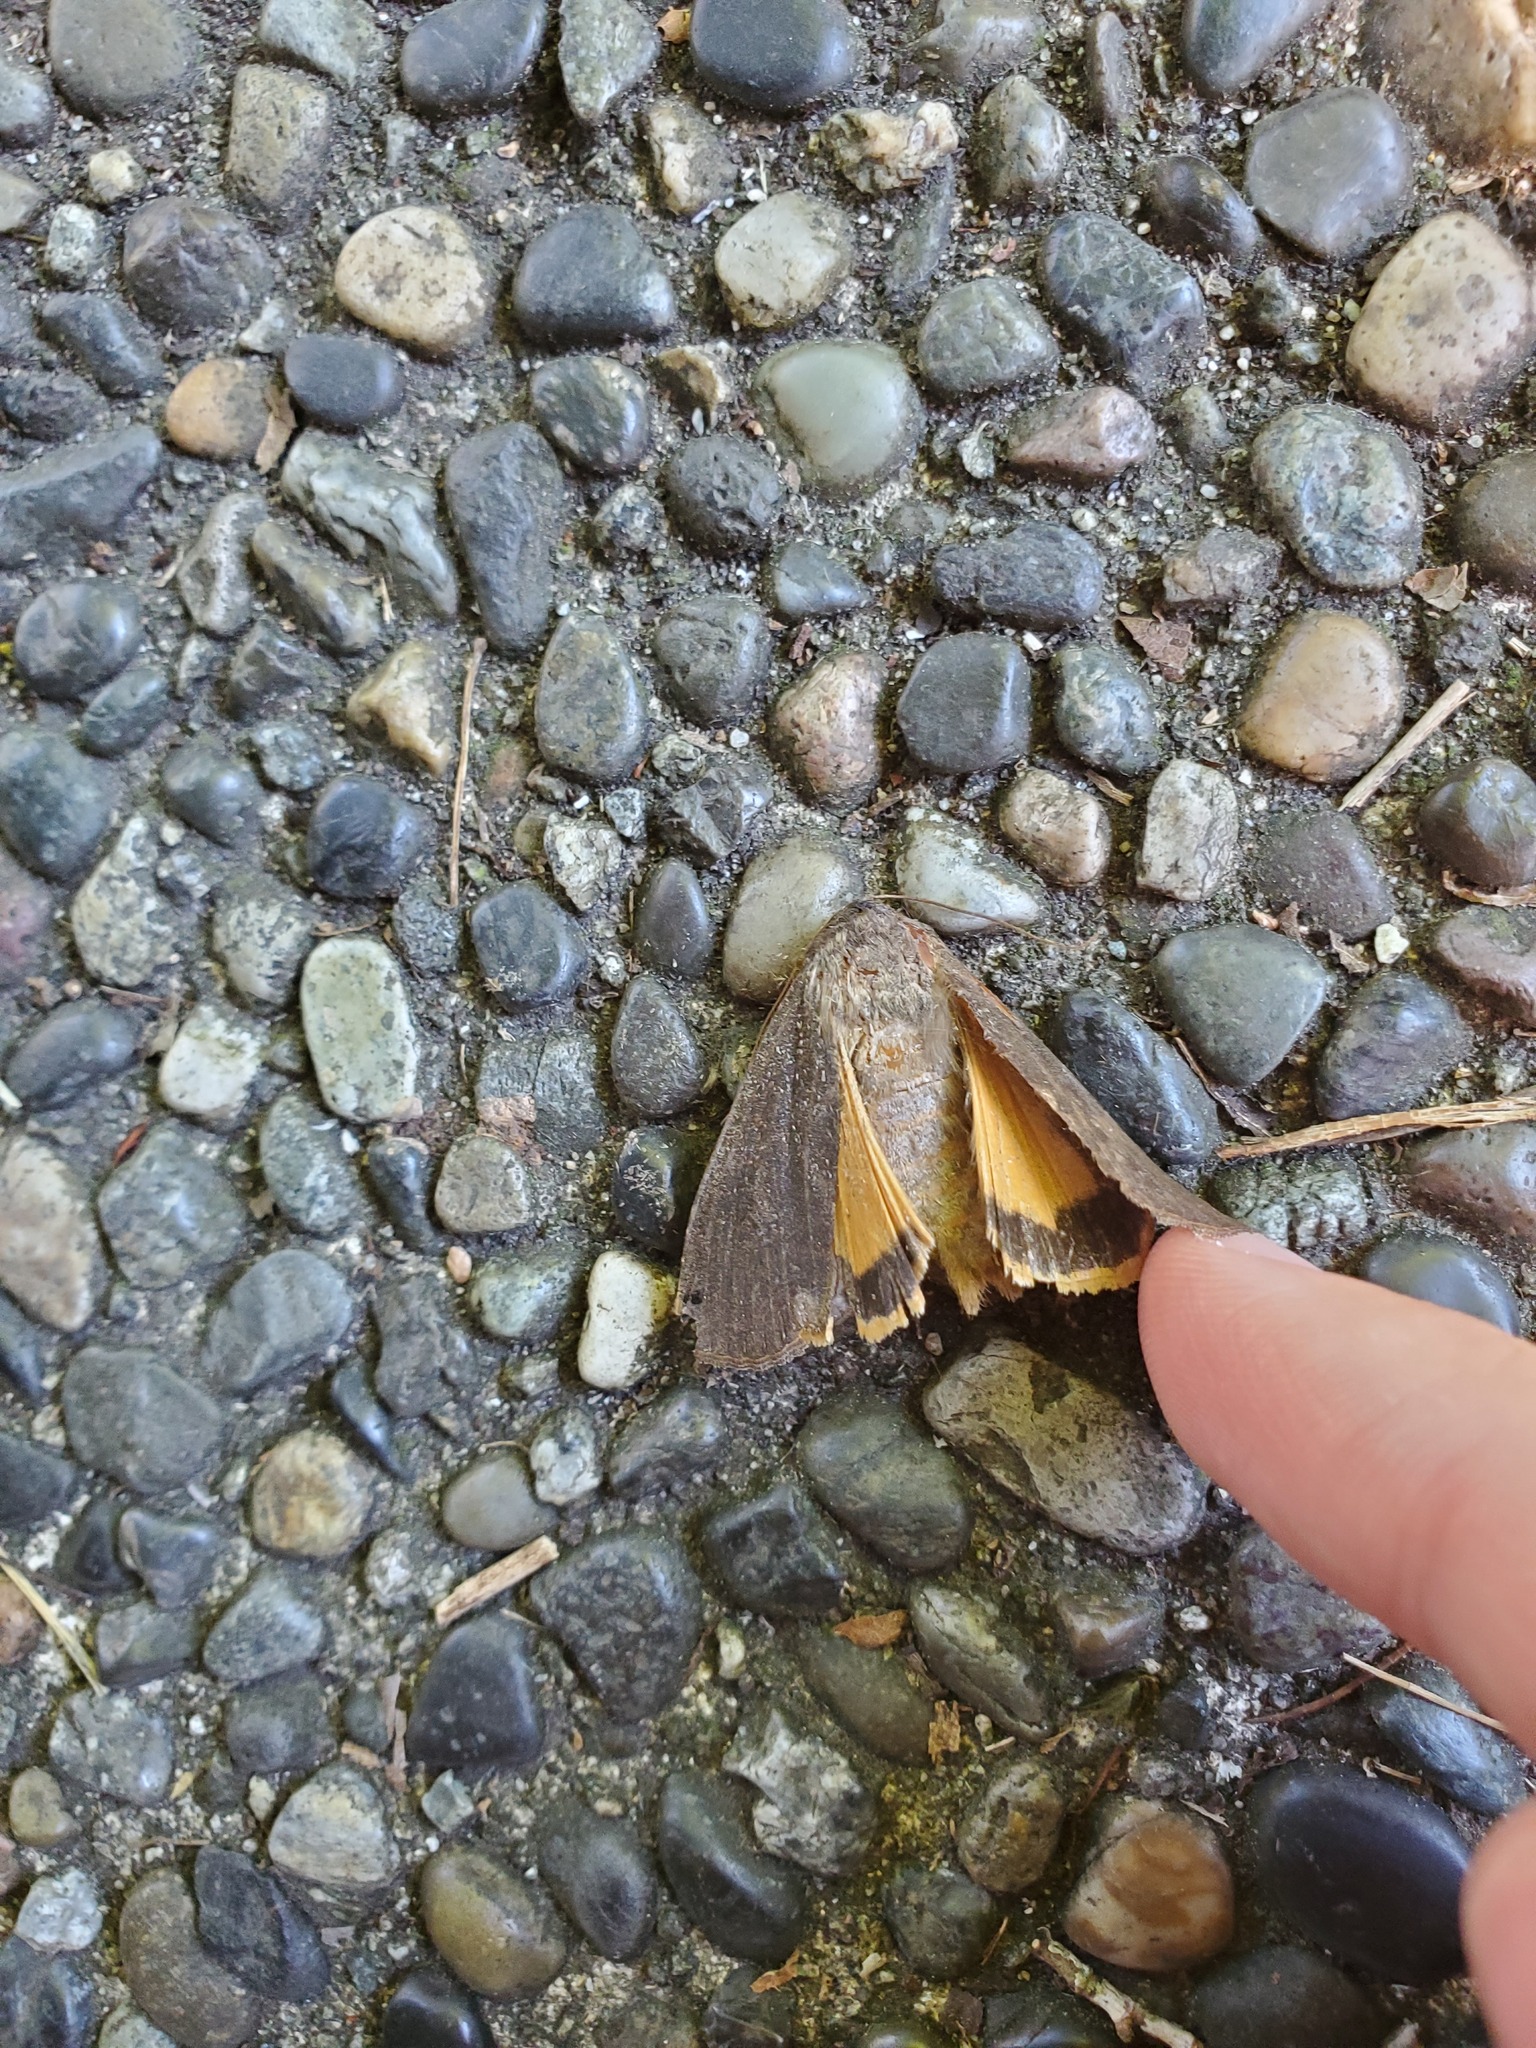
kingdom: Animalia
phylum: Arthropoda
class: Insecta
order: Lepidoptera
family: Noctuidae
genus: Noctua
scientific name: Noctua pronuba
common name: Large yellow underwing
